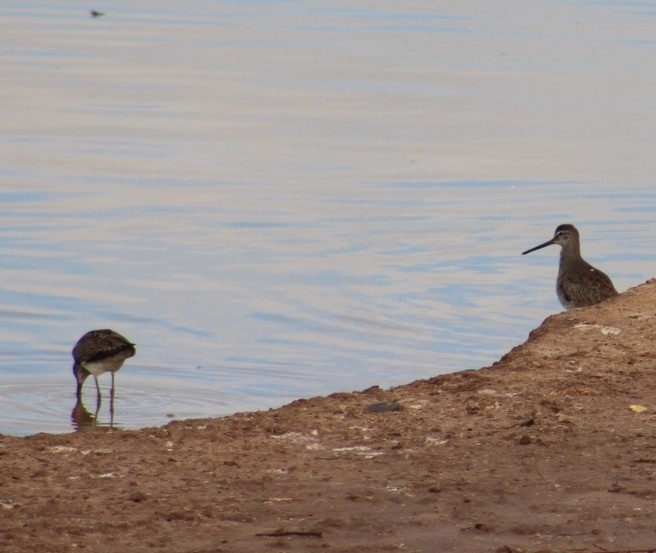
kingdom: Animalia
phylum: Chordata
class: Aves
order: Charadriiformes
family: Scolopacidae
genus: Limnodromus
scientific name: Limnodromus scolopaceus
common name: Long-billed dowitcher
